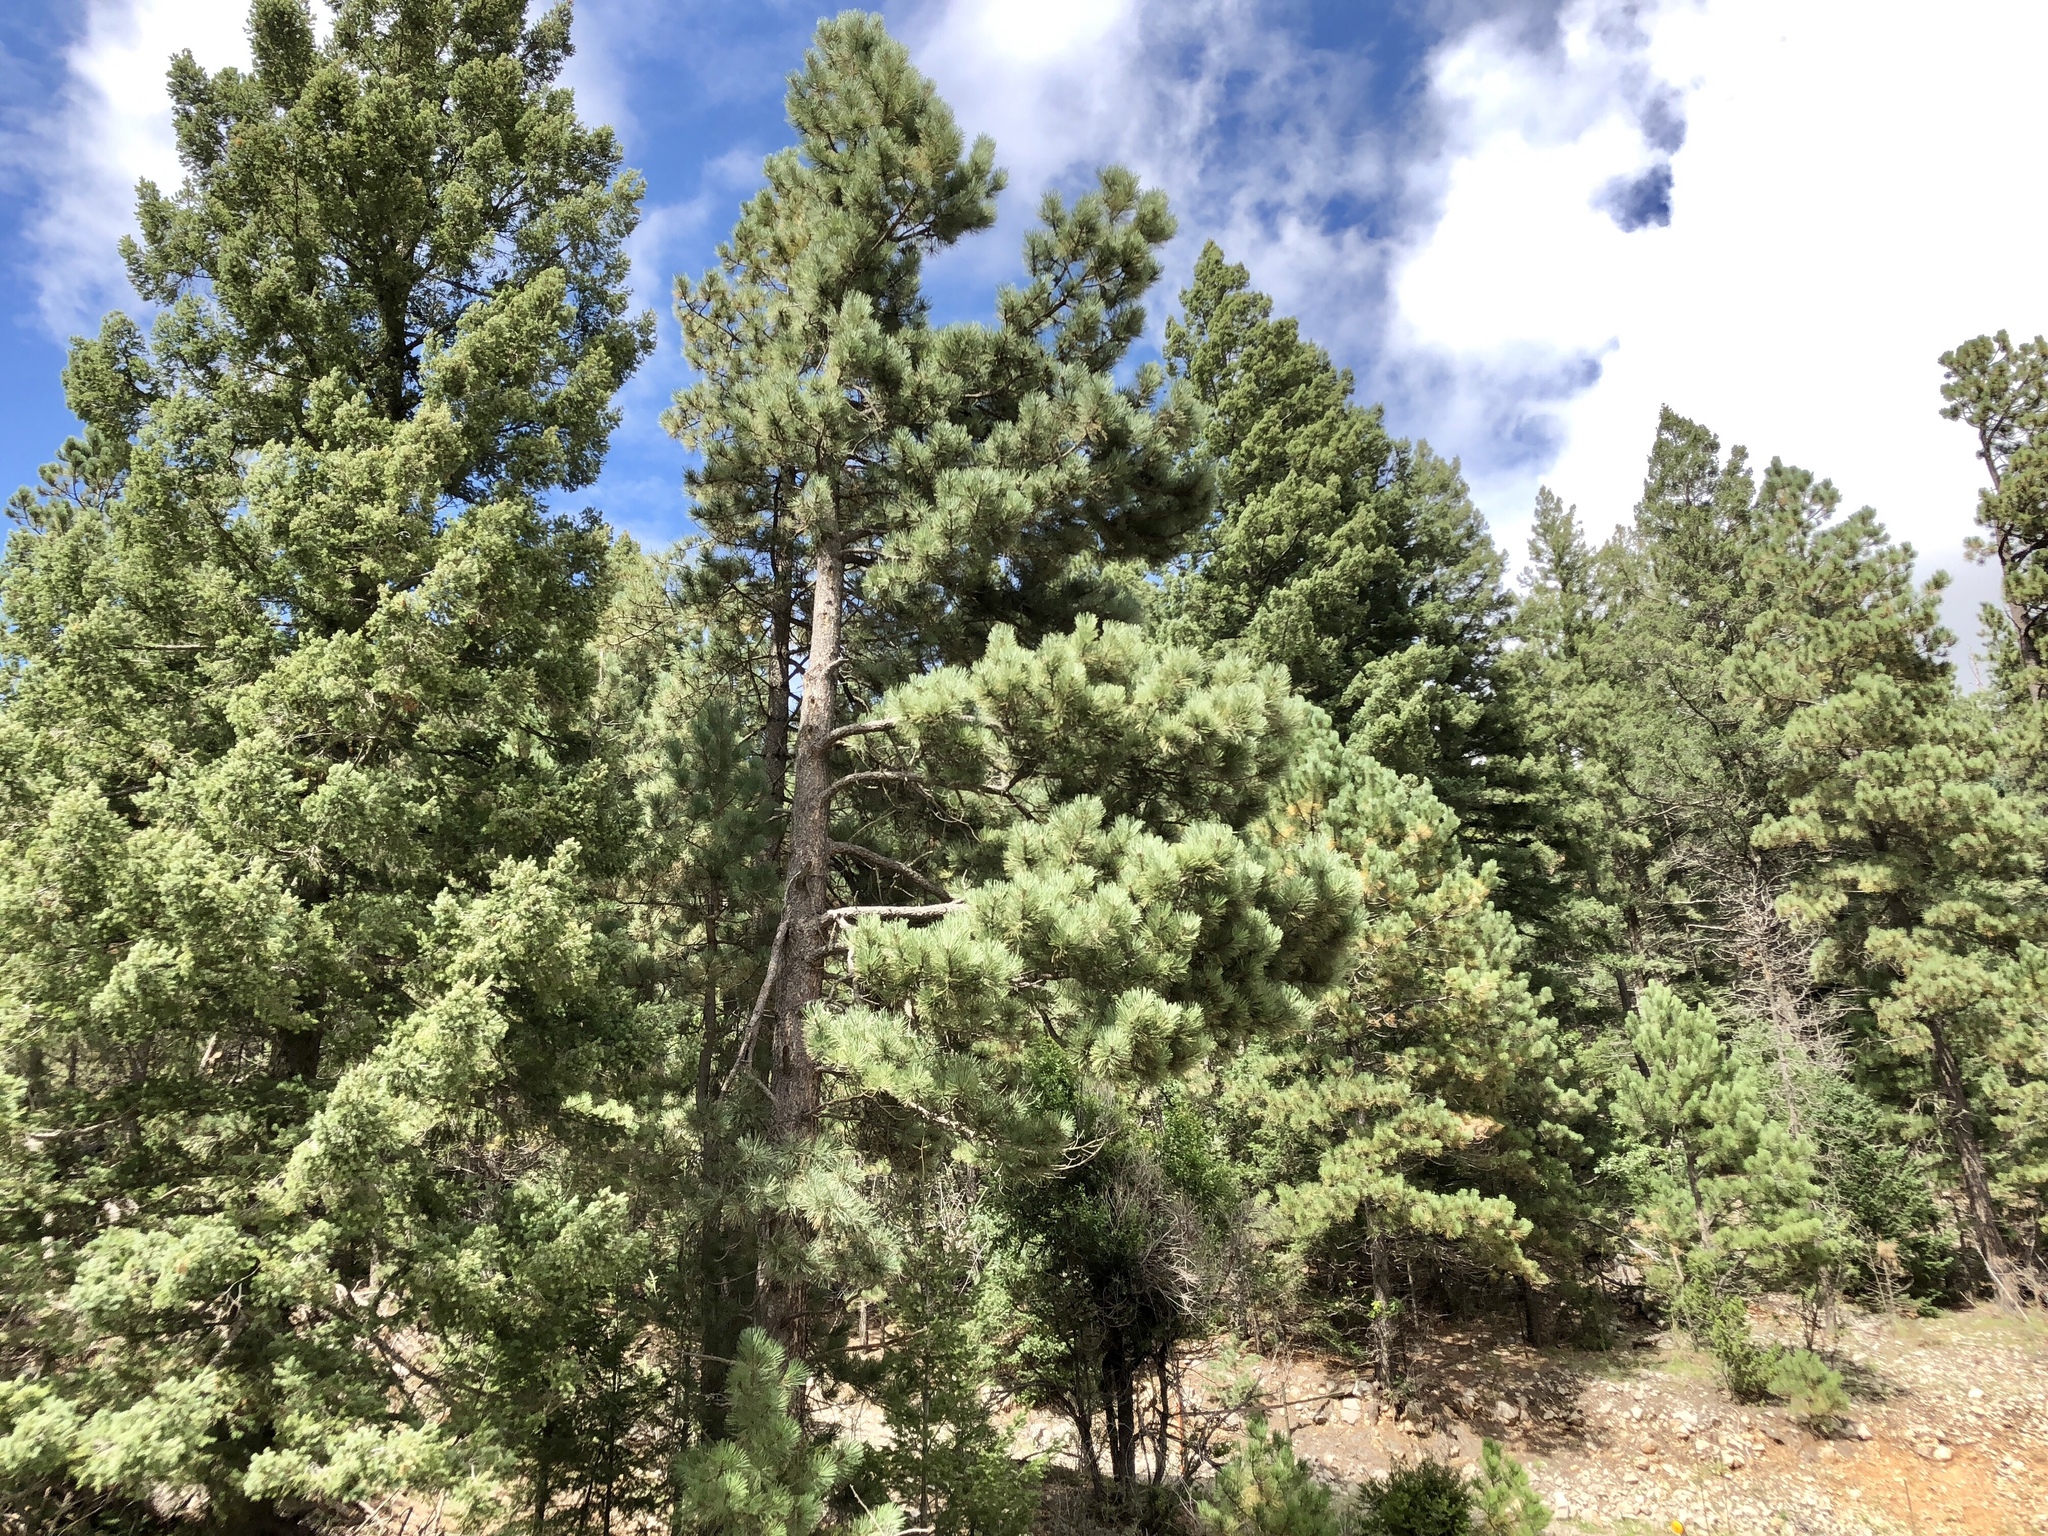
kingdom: Plantae
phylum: Tracheophyta
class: Pinopsida
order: Pinales
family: Pinaceae
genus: Pinus
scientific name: Pinus ponderosa
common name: Western yellow-pine
